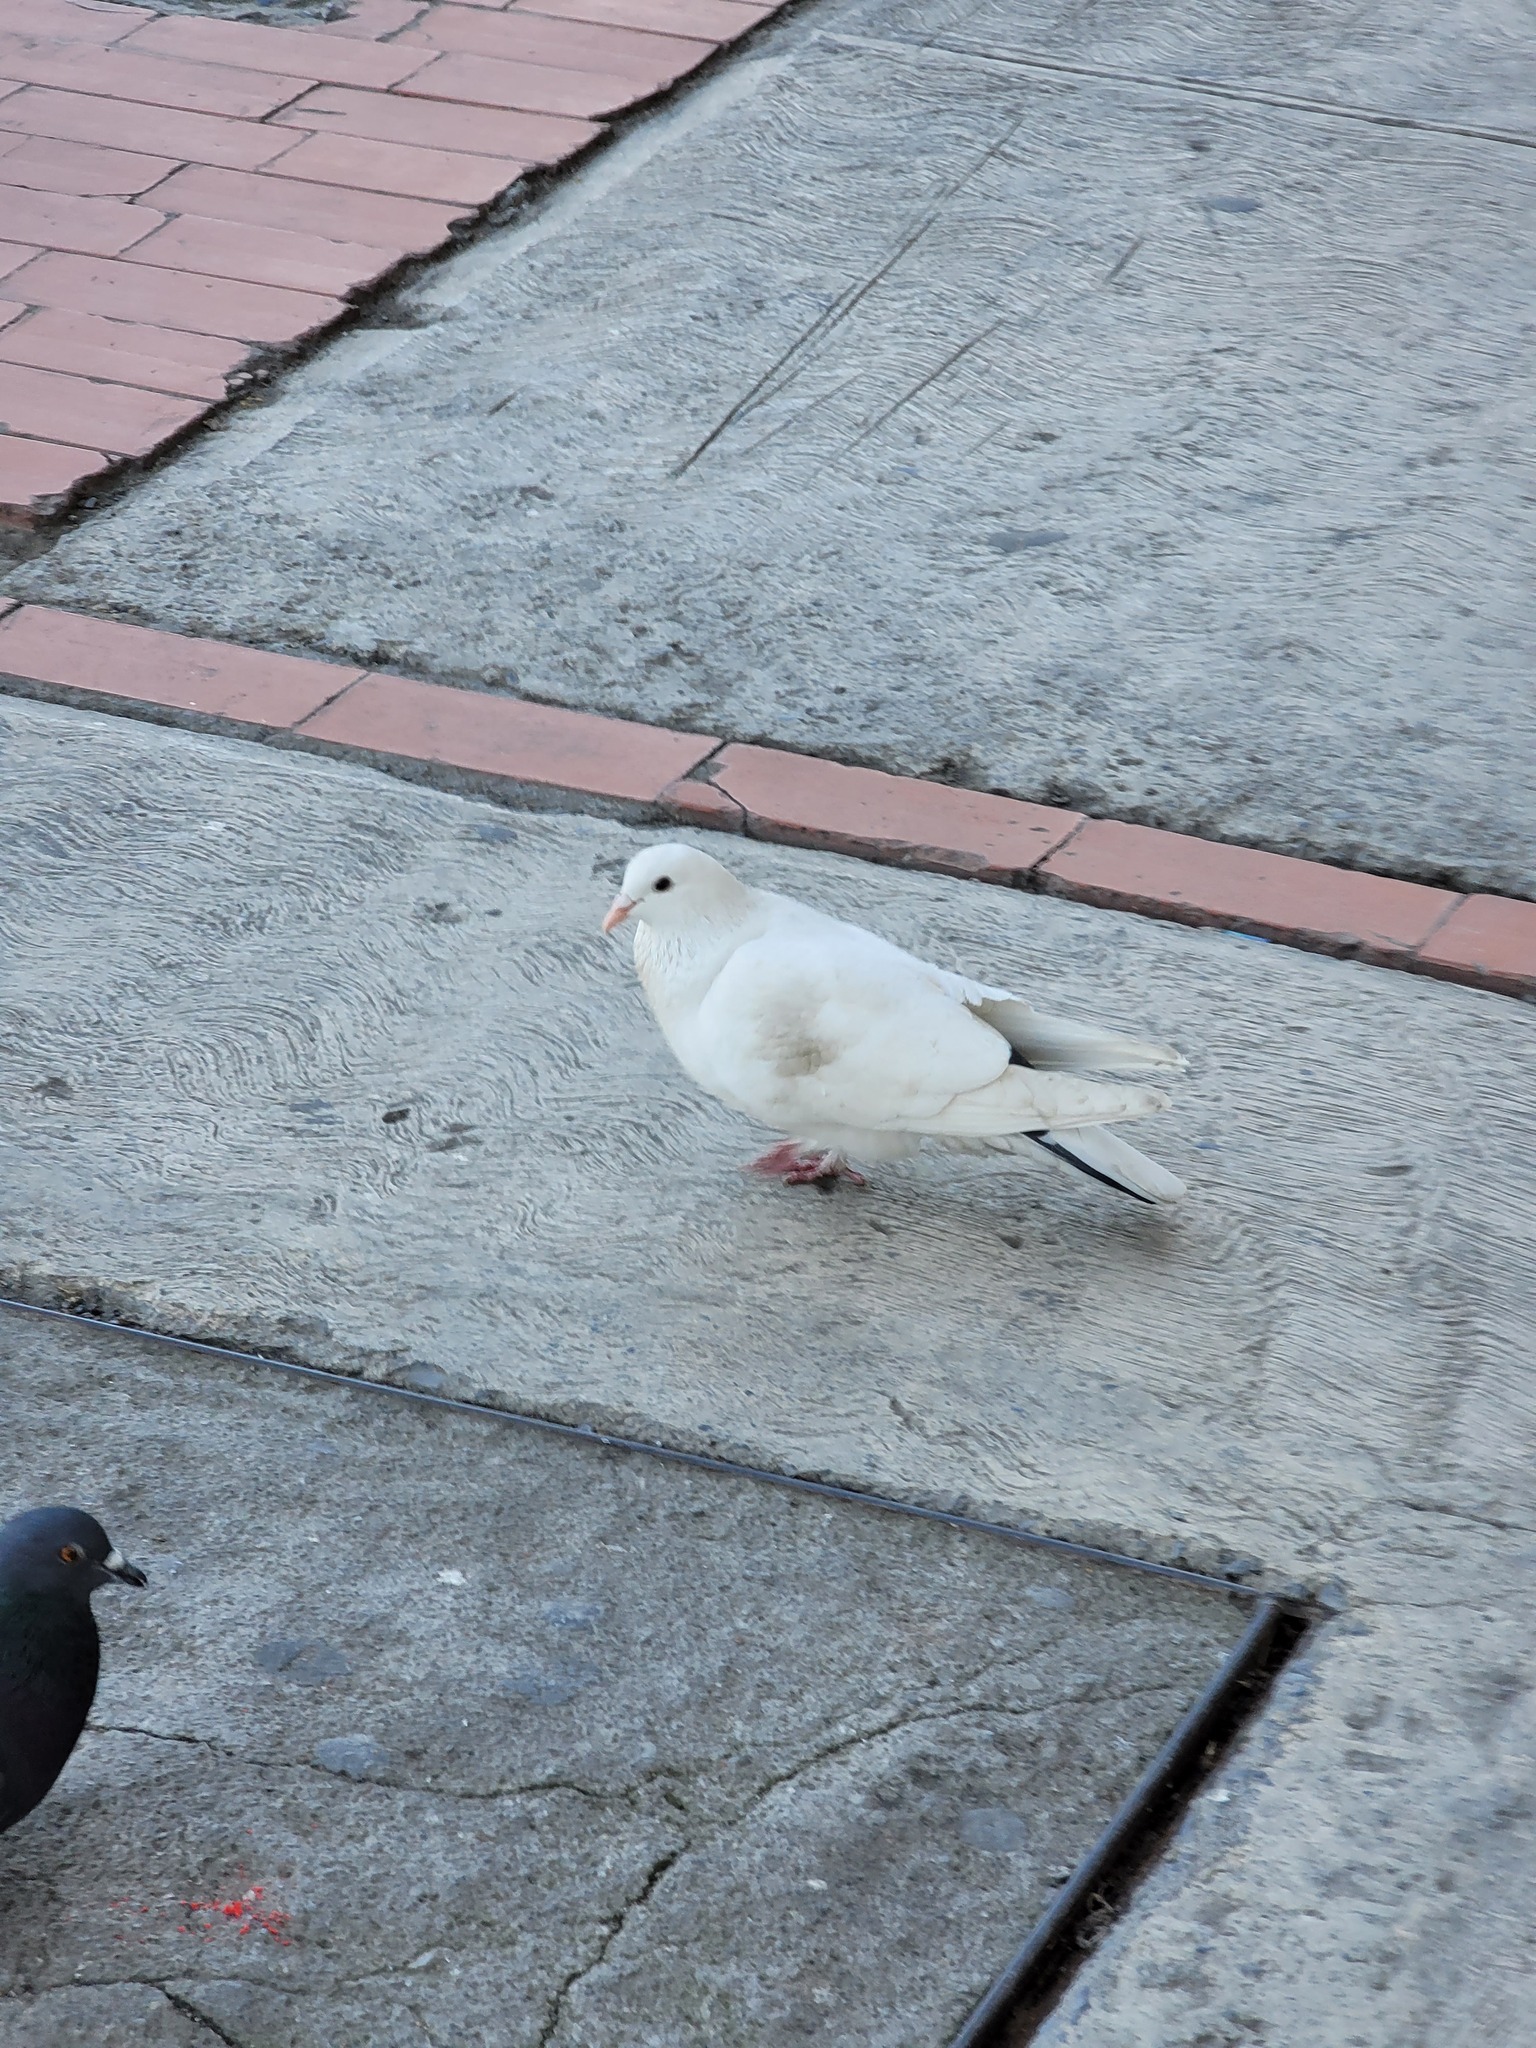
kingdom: Animalia
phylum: Chordata
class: Aves
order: Columbiformes
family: Columbidae
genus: Columba
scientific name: Columba livia
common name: Rock pigeon
